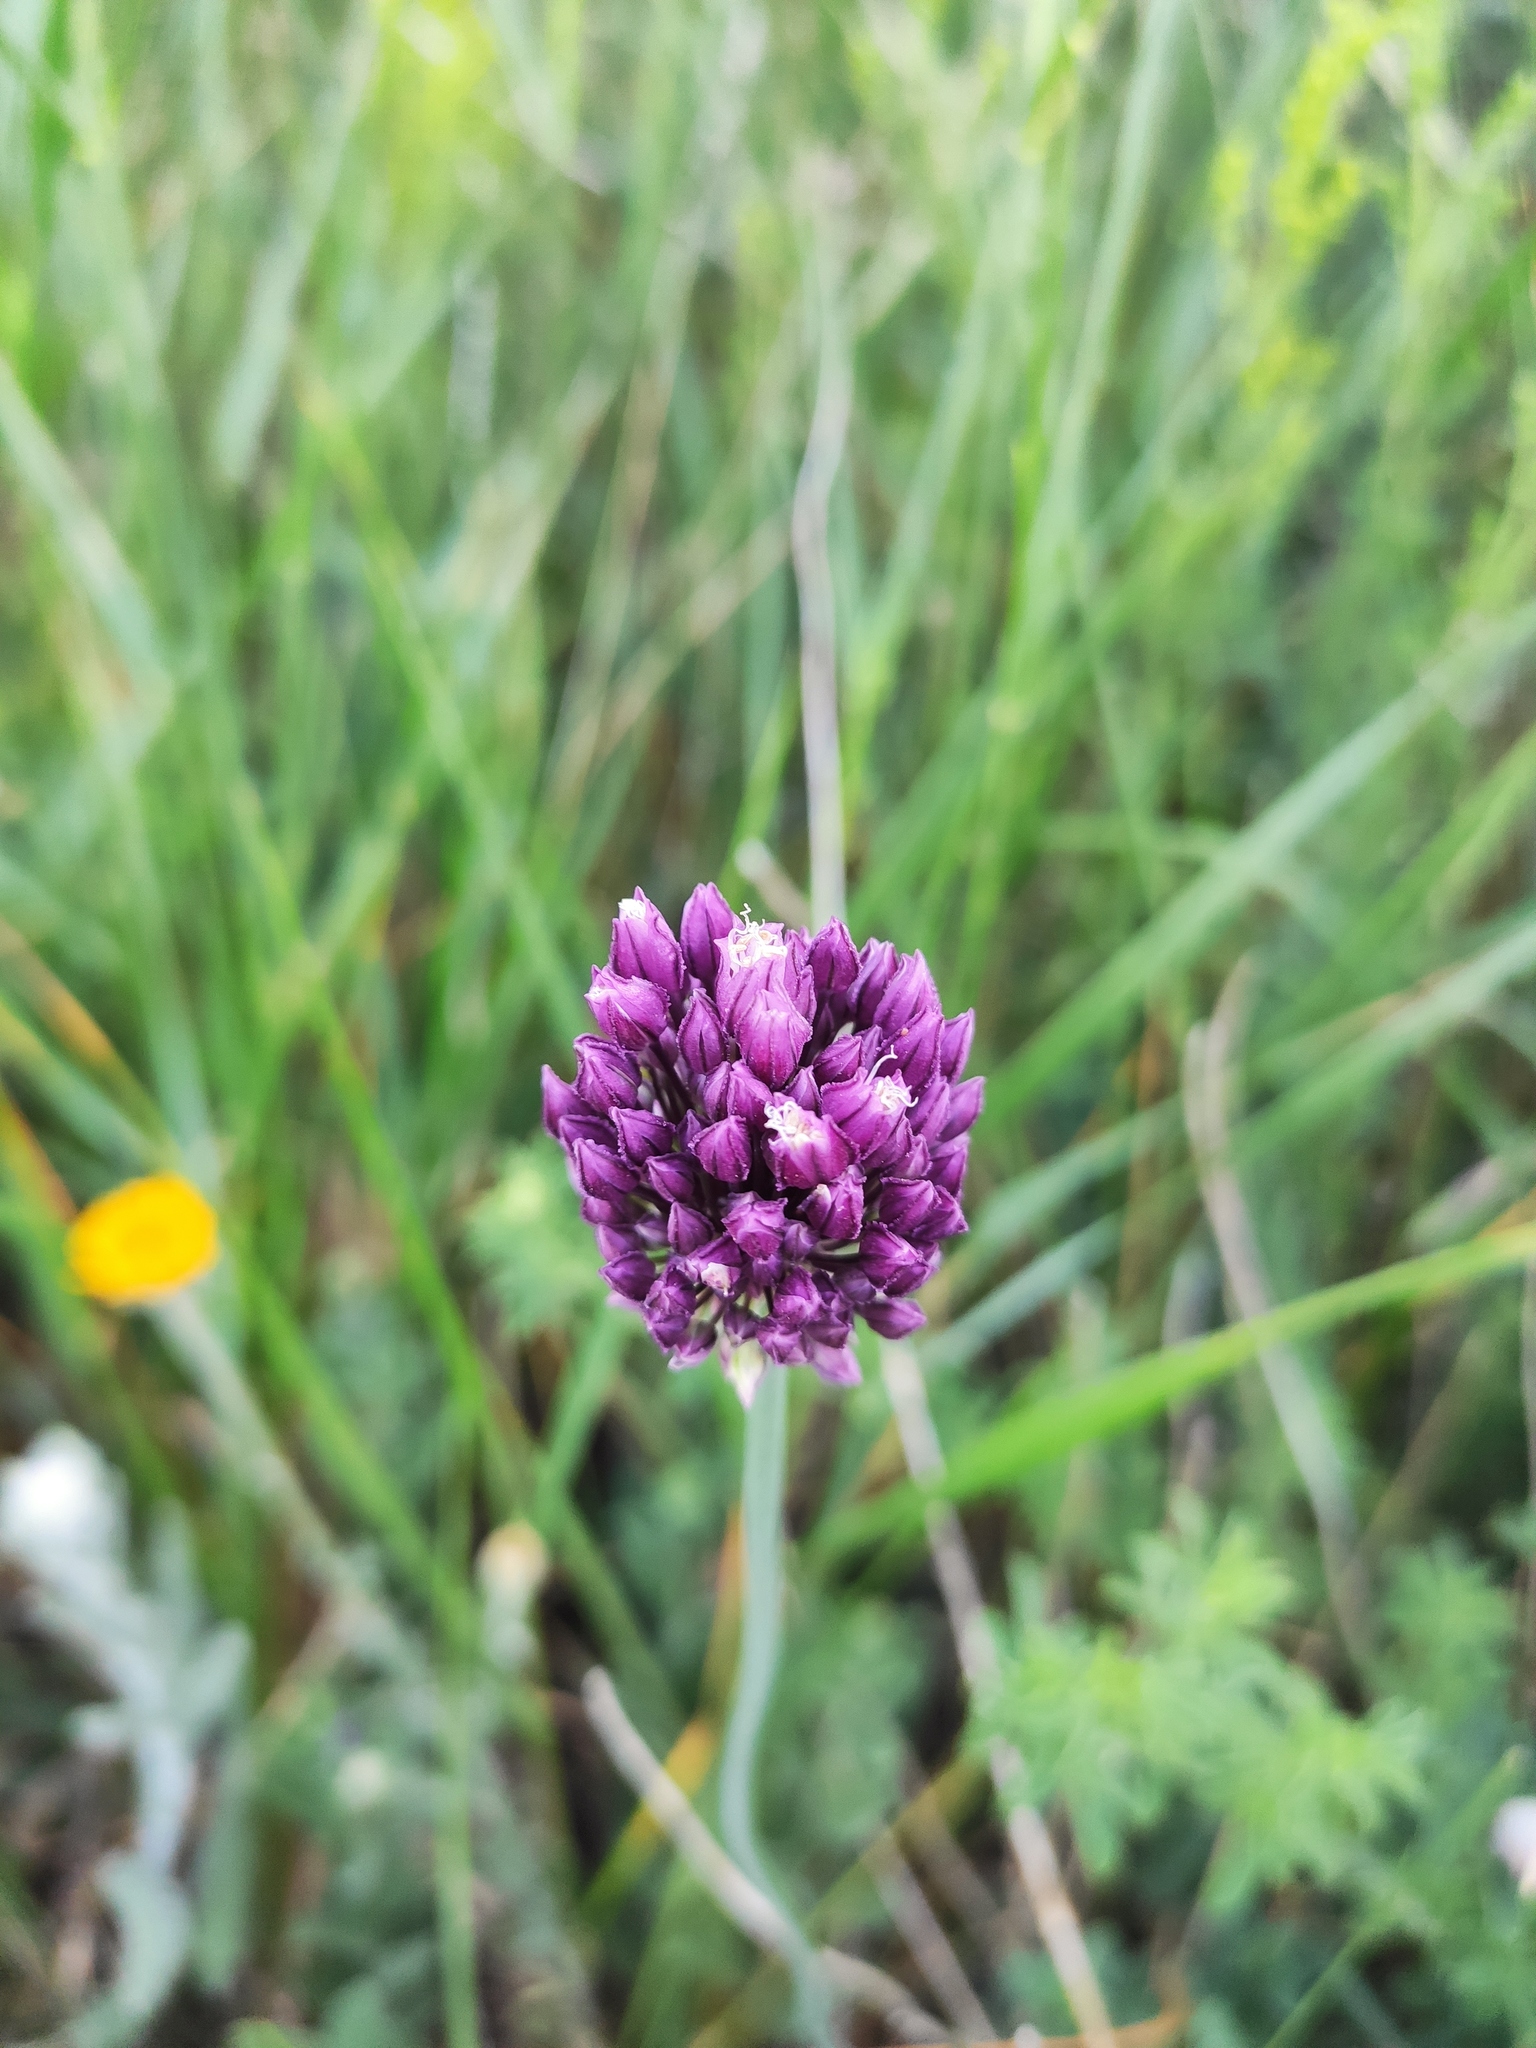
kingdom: Plantae
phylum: Tracheophyta
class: Liliopsida
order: Asparagales
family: Amaryllidaceae
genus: Allium
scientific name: Allium rotundum
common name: Sand leek
